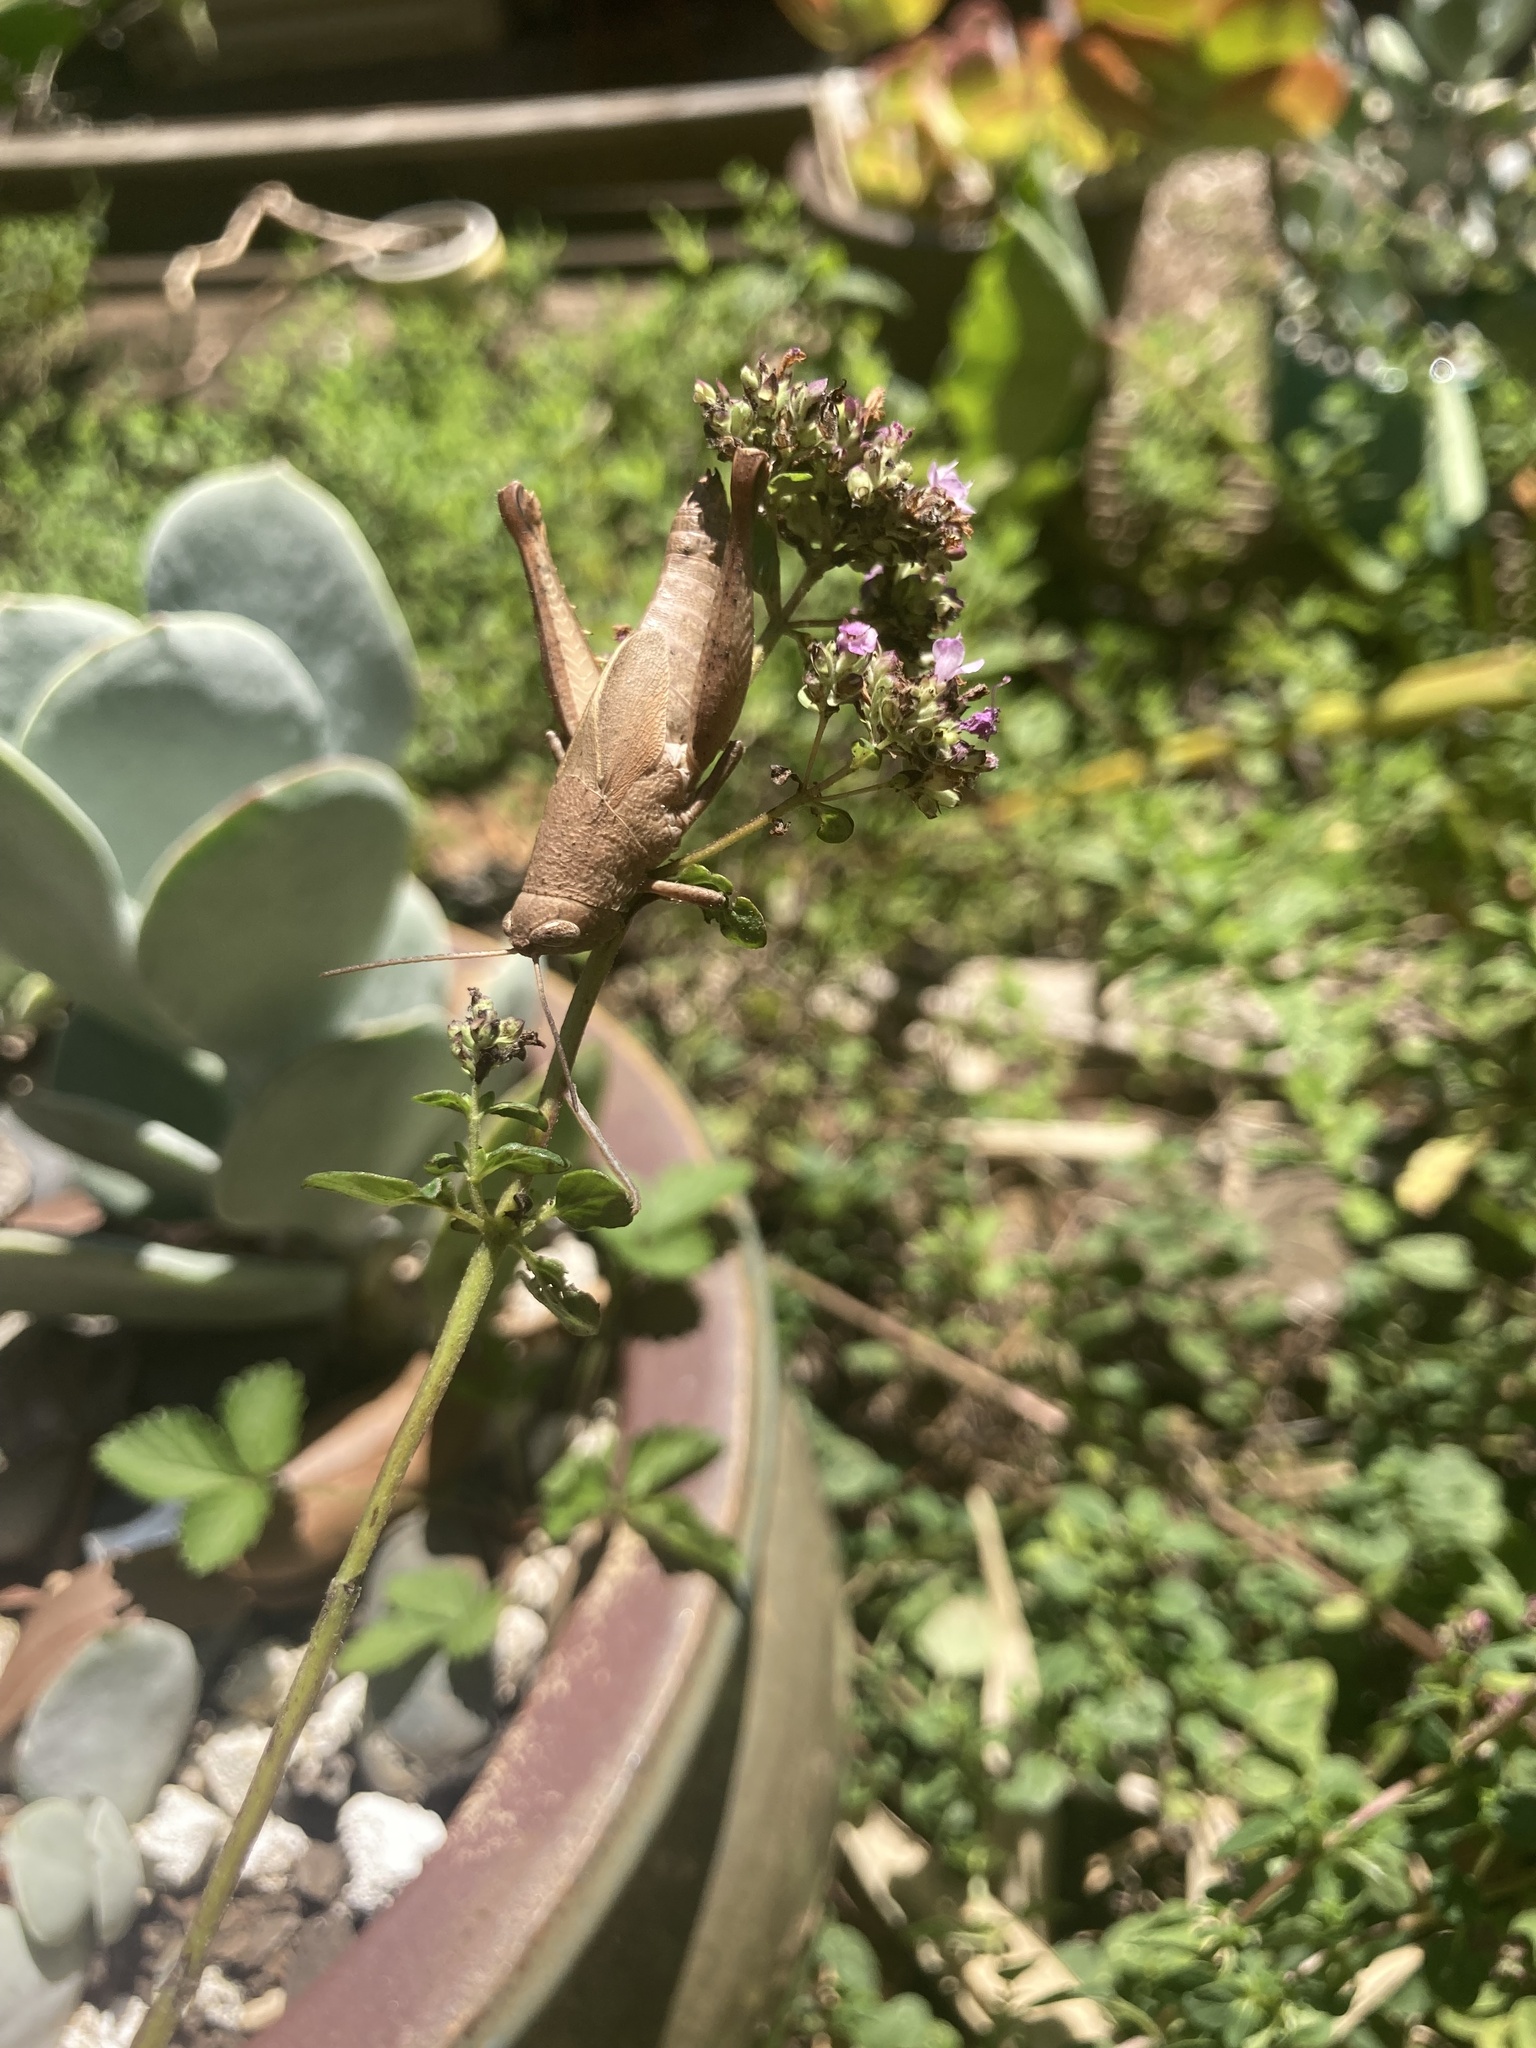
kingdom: Animalia
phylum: Arthropoda
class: Insecta
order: Orthoptera
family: Acrididae
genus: Rhitzala
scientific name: Rhitzala modesta
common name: Short-winged heath grasshopper
